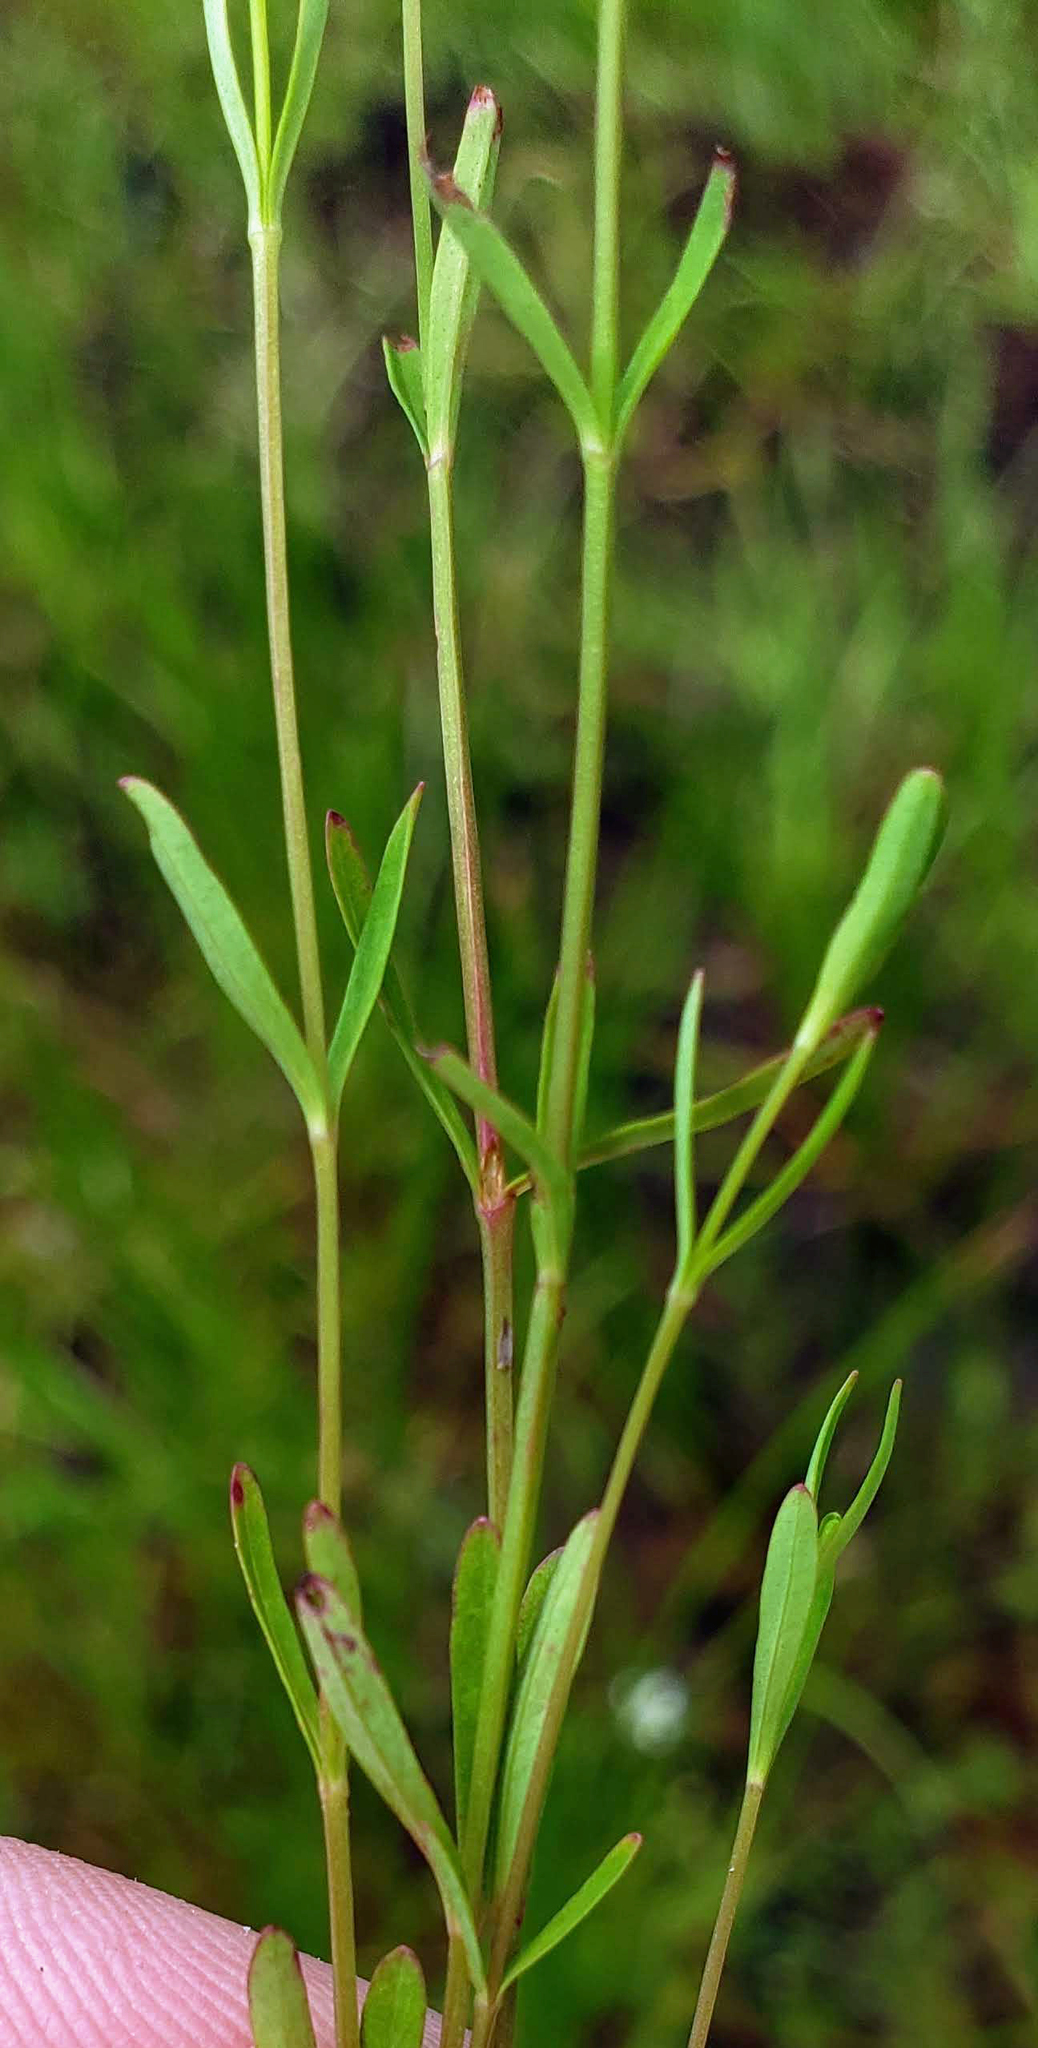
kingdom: Plantae
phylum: Tracheophyta
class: Magnoliopsida
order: Malpighiales
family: Hypericaceae
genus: Hypericum
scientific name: Hypericum canadense
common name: Irish st. john's-wort
